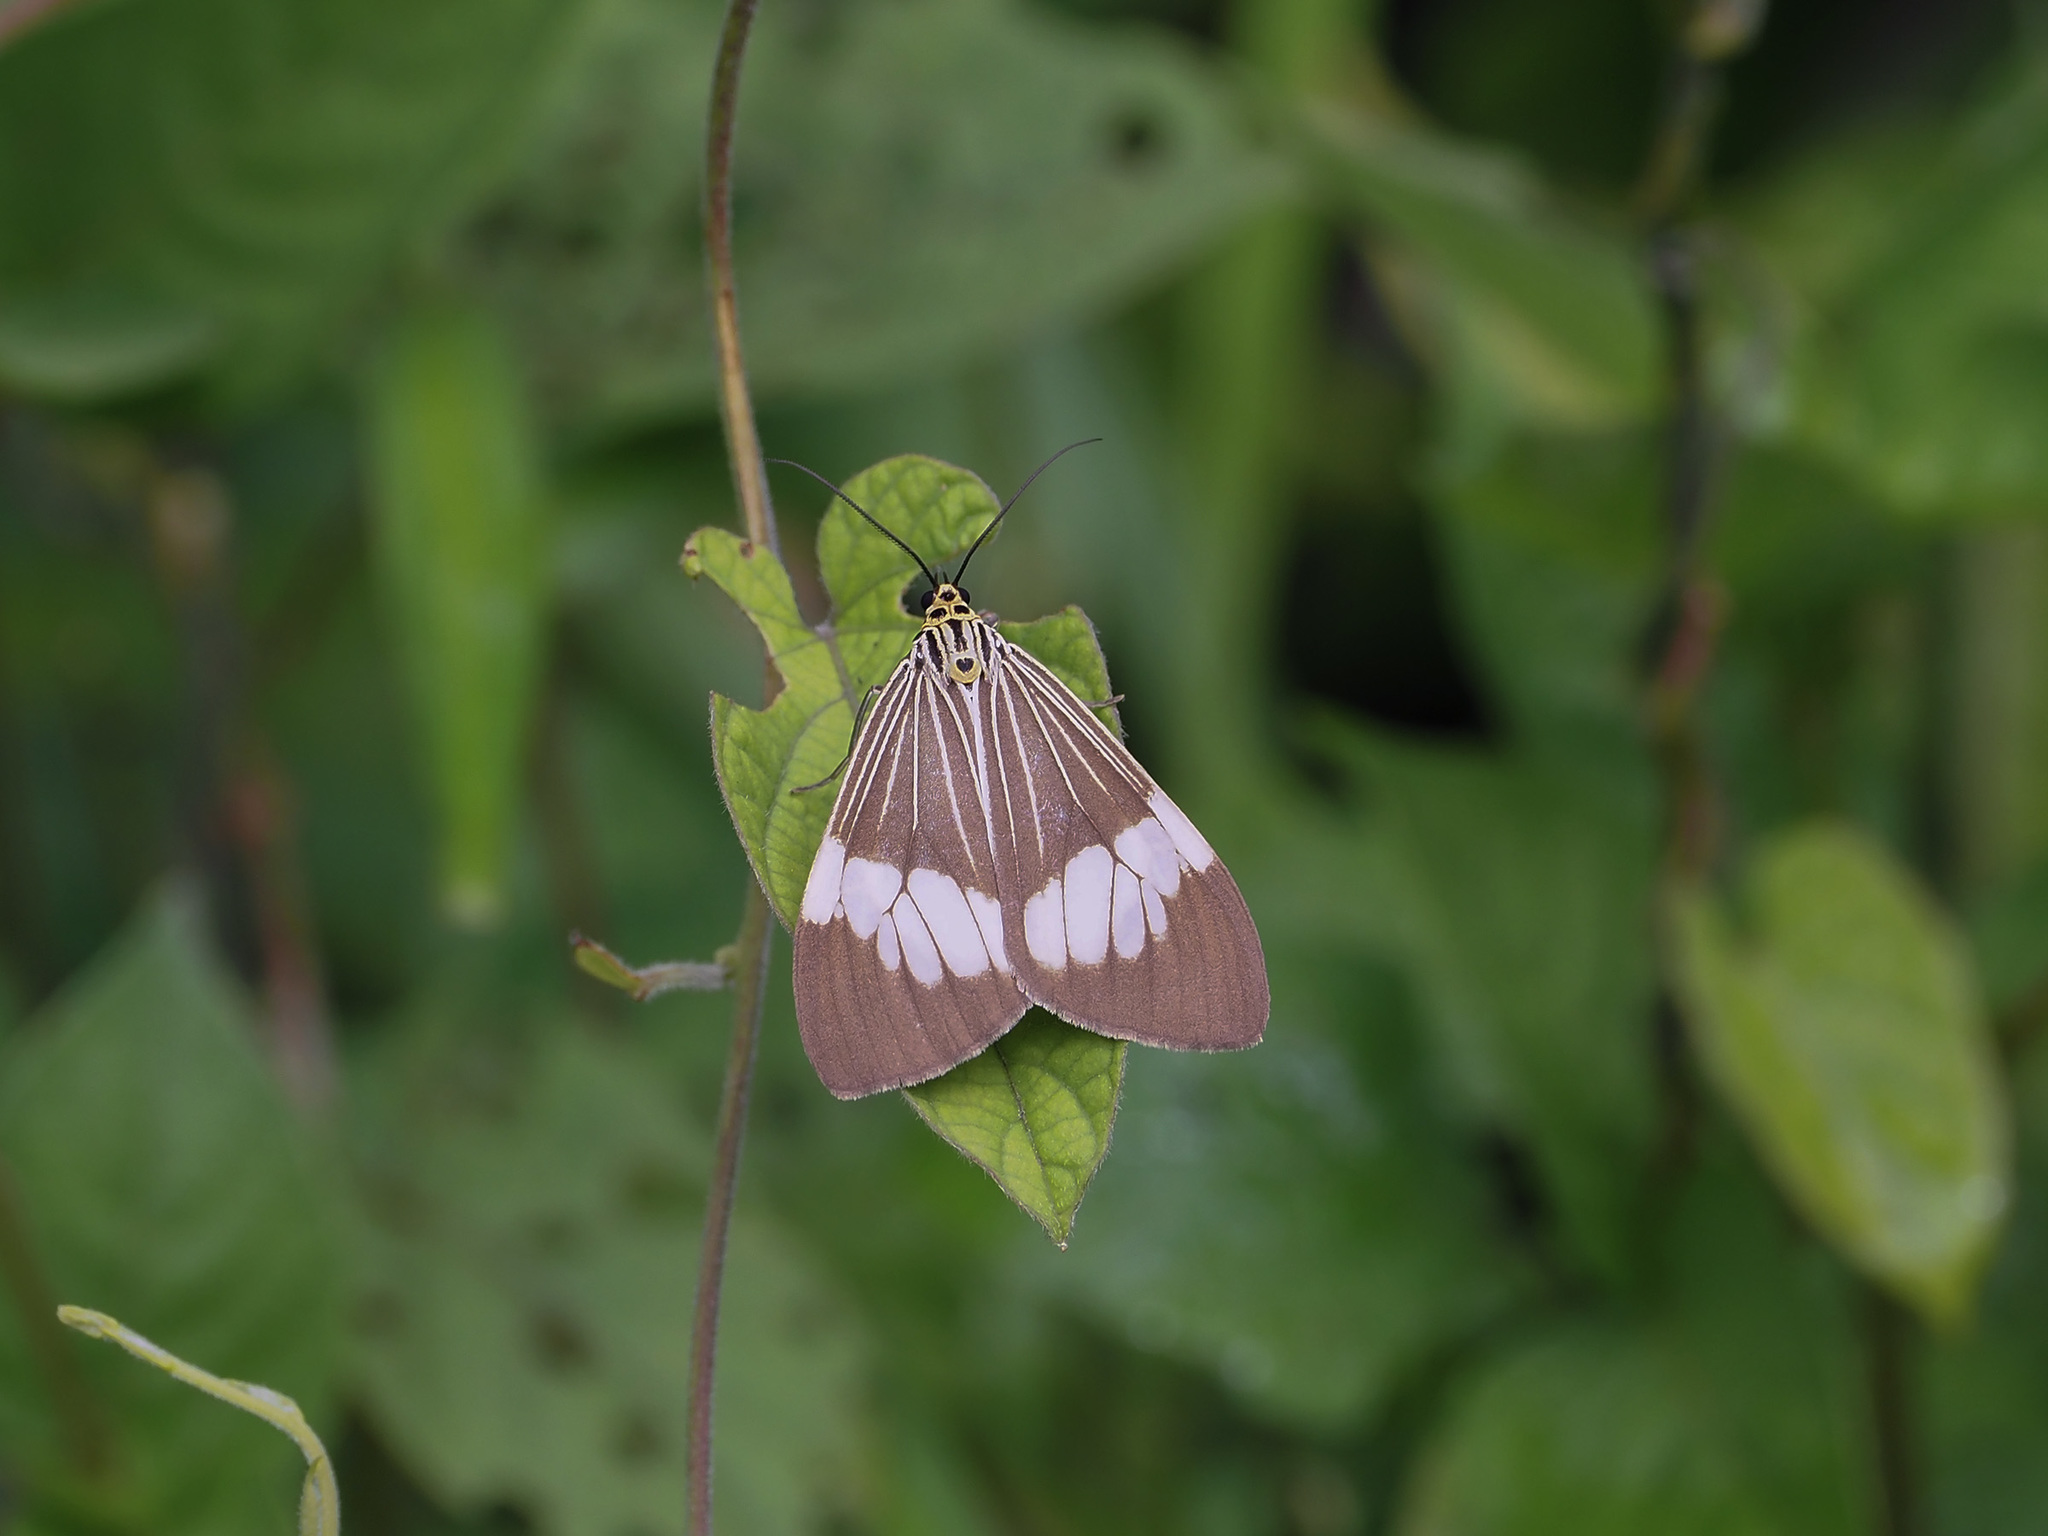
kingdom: Animalia
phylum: Arthropoda
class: Insecta
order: Lepidoptera
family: Erebidae
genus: Nyctemera
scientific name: Nyctemera baulus
